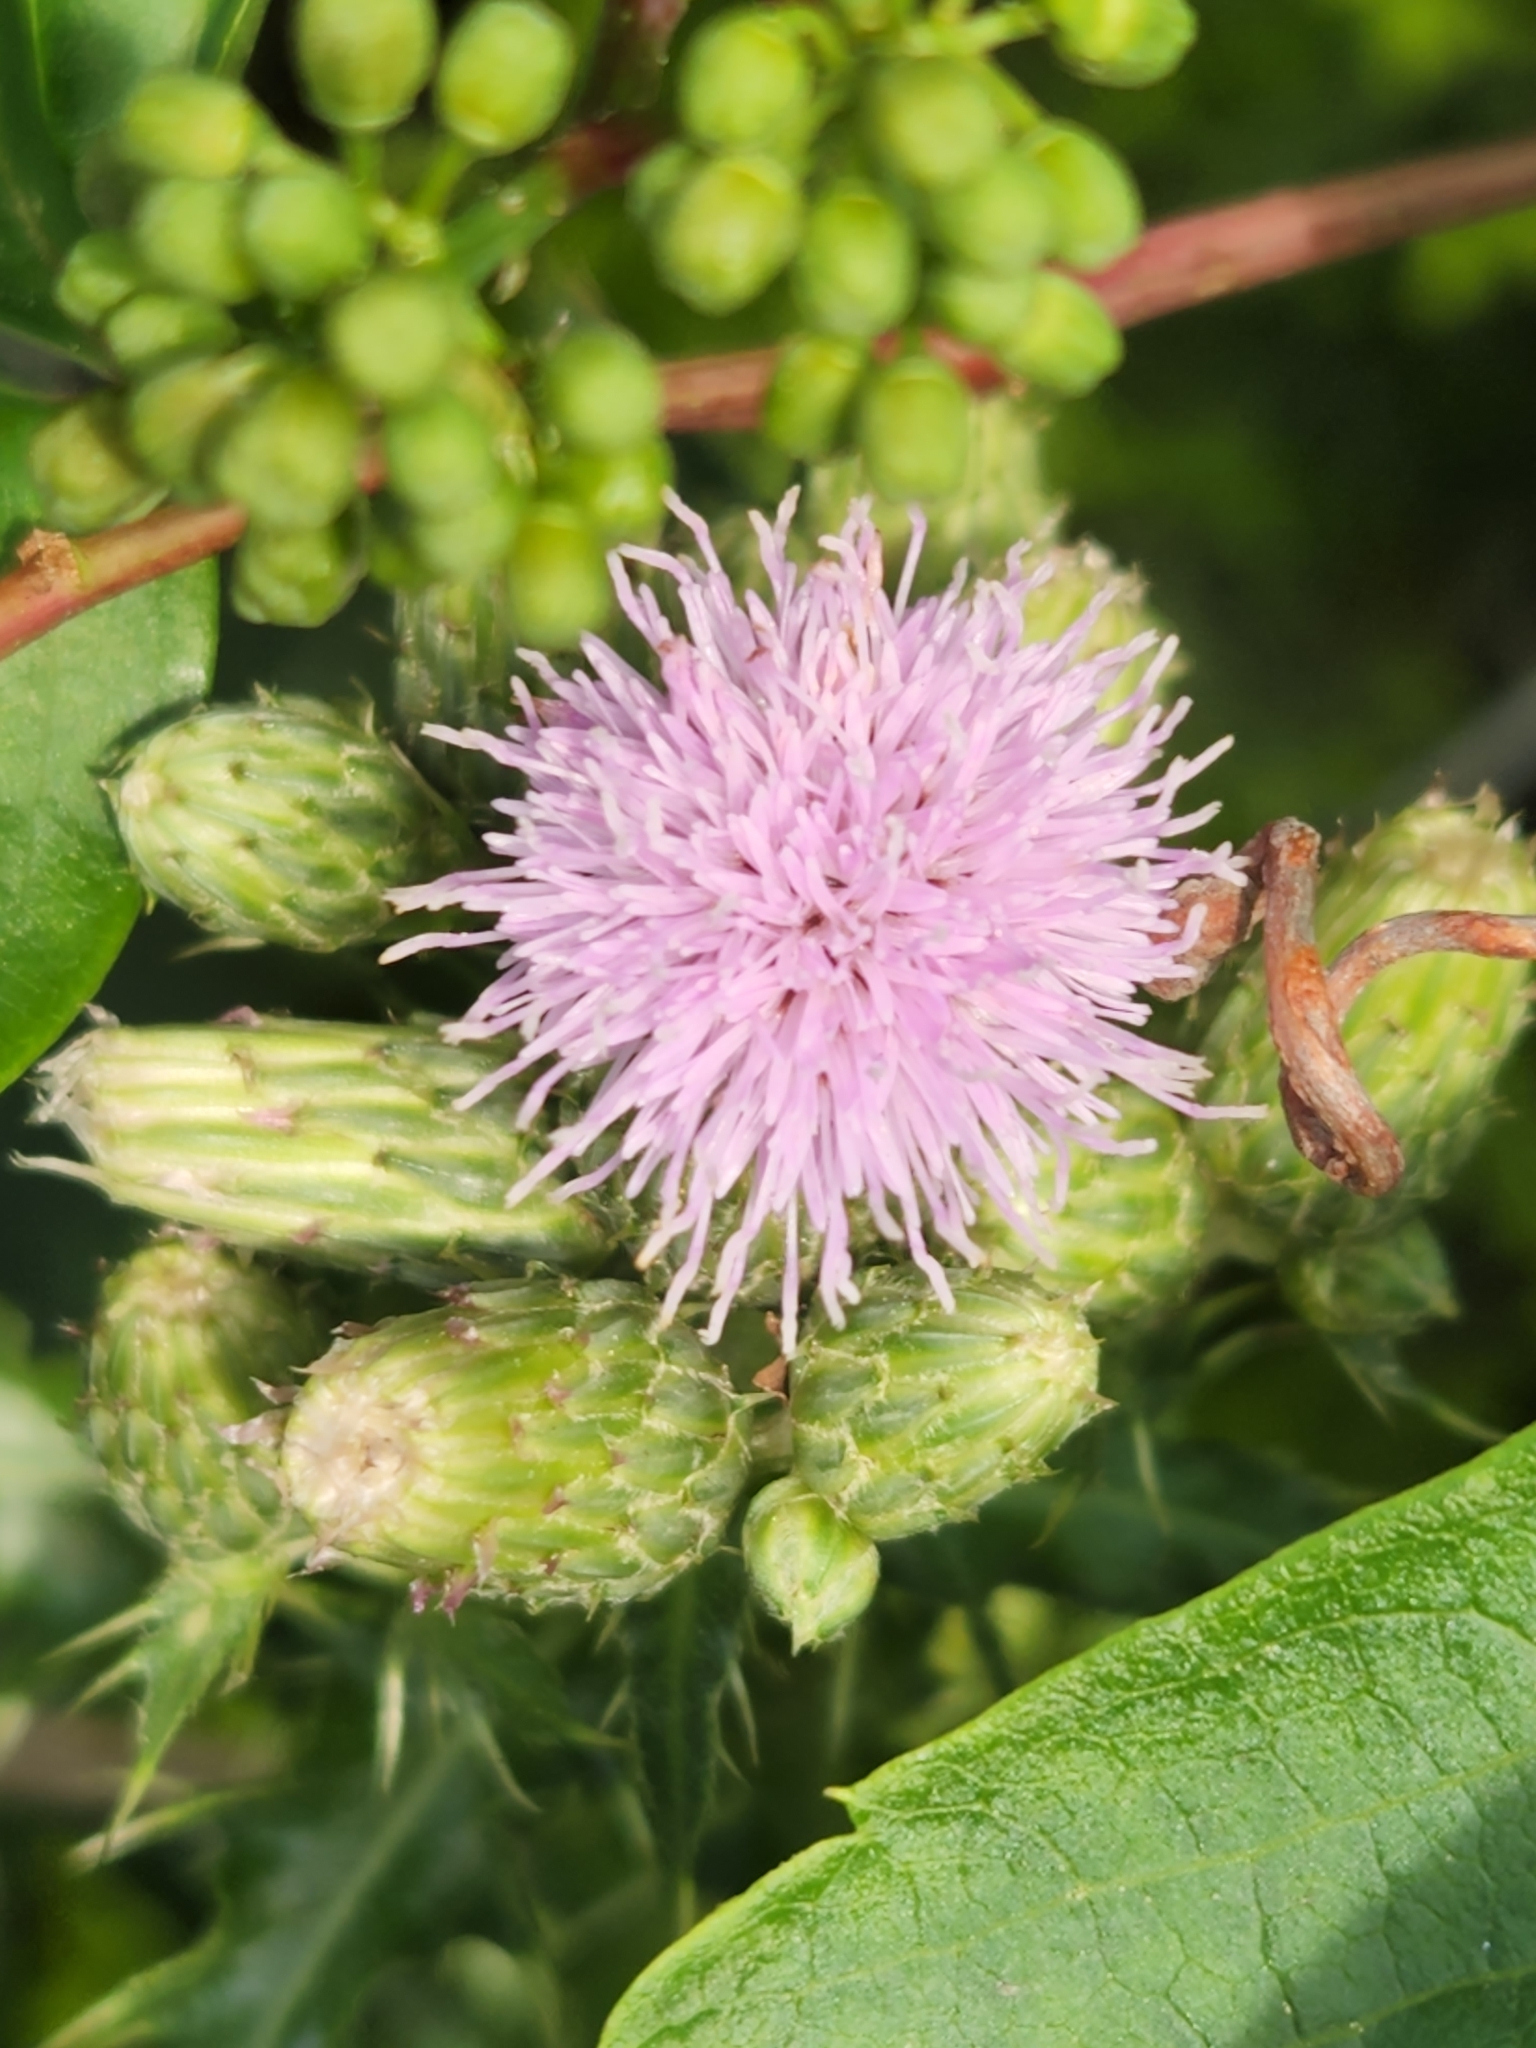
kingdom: Plantae
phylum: Tracheophyta
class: Magnoliopsida
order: Asterales
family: Asteraceae
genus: Cirsium
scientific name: Cirsium arvense
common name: Creeping thistle
